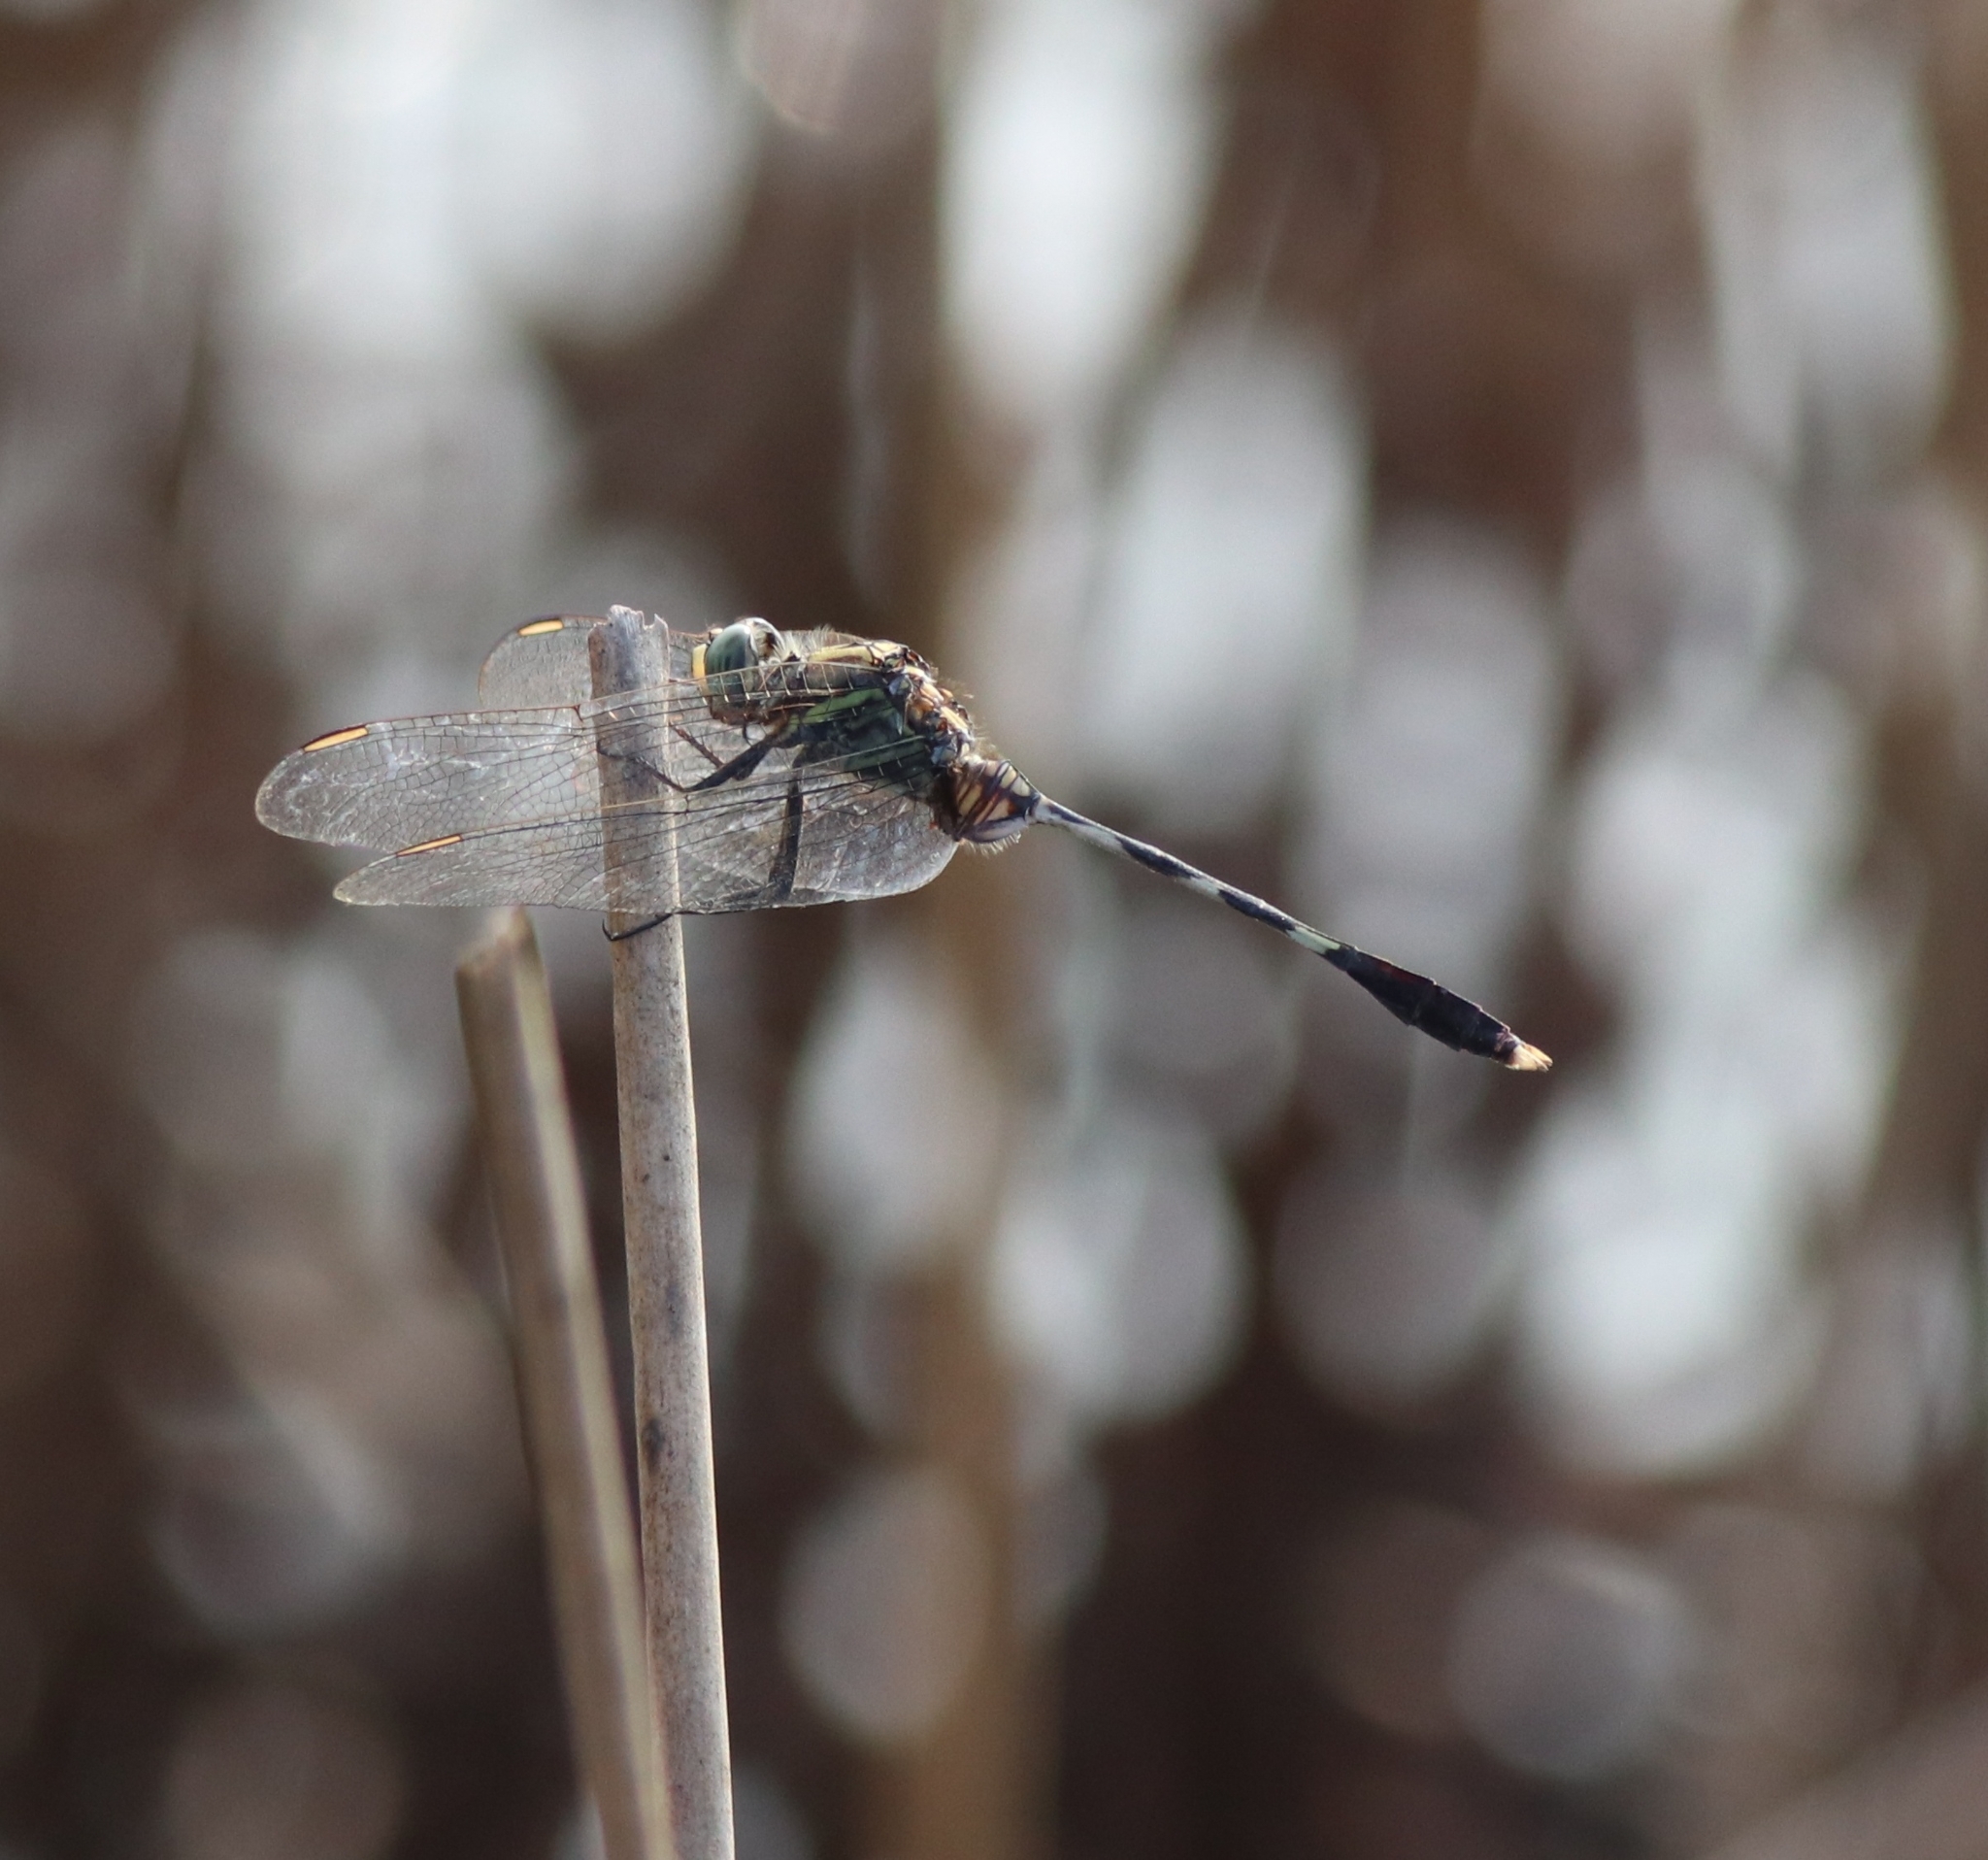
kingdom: Animalia
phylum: Arthropoda
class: Insecta
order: Odonata
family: Libellulidae
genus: Orthetrum
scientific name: Orthetrum sabina
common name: Slender skimmer
